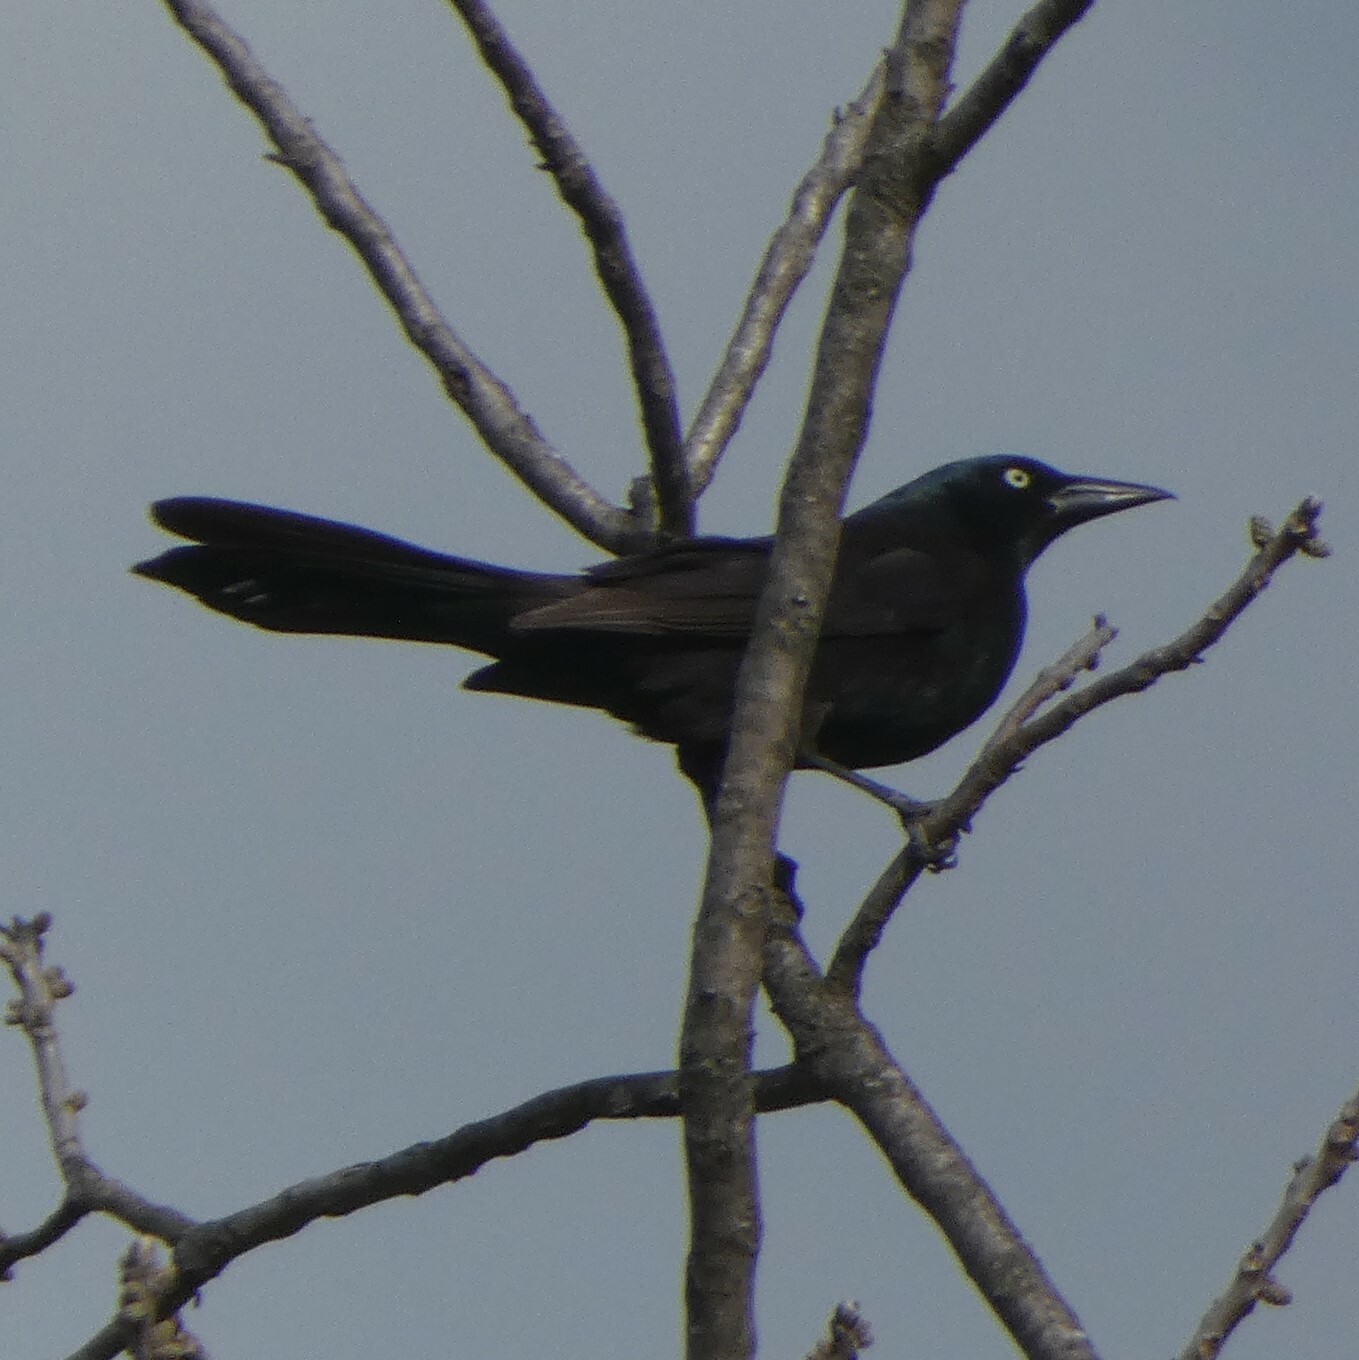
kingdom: Animalia
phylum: Chordata
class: Aves
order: Passeriformes
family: Icteridae
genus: Quiscalus
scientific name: Quiscalus quiscula
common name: Common grackle
